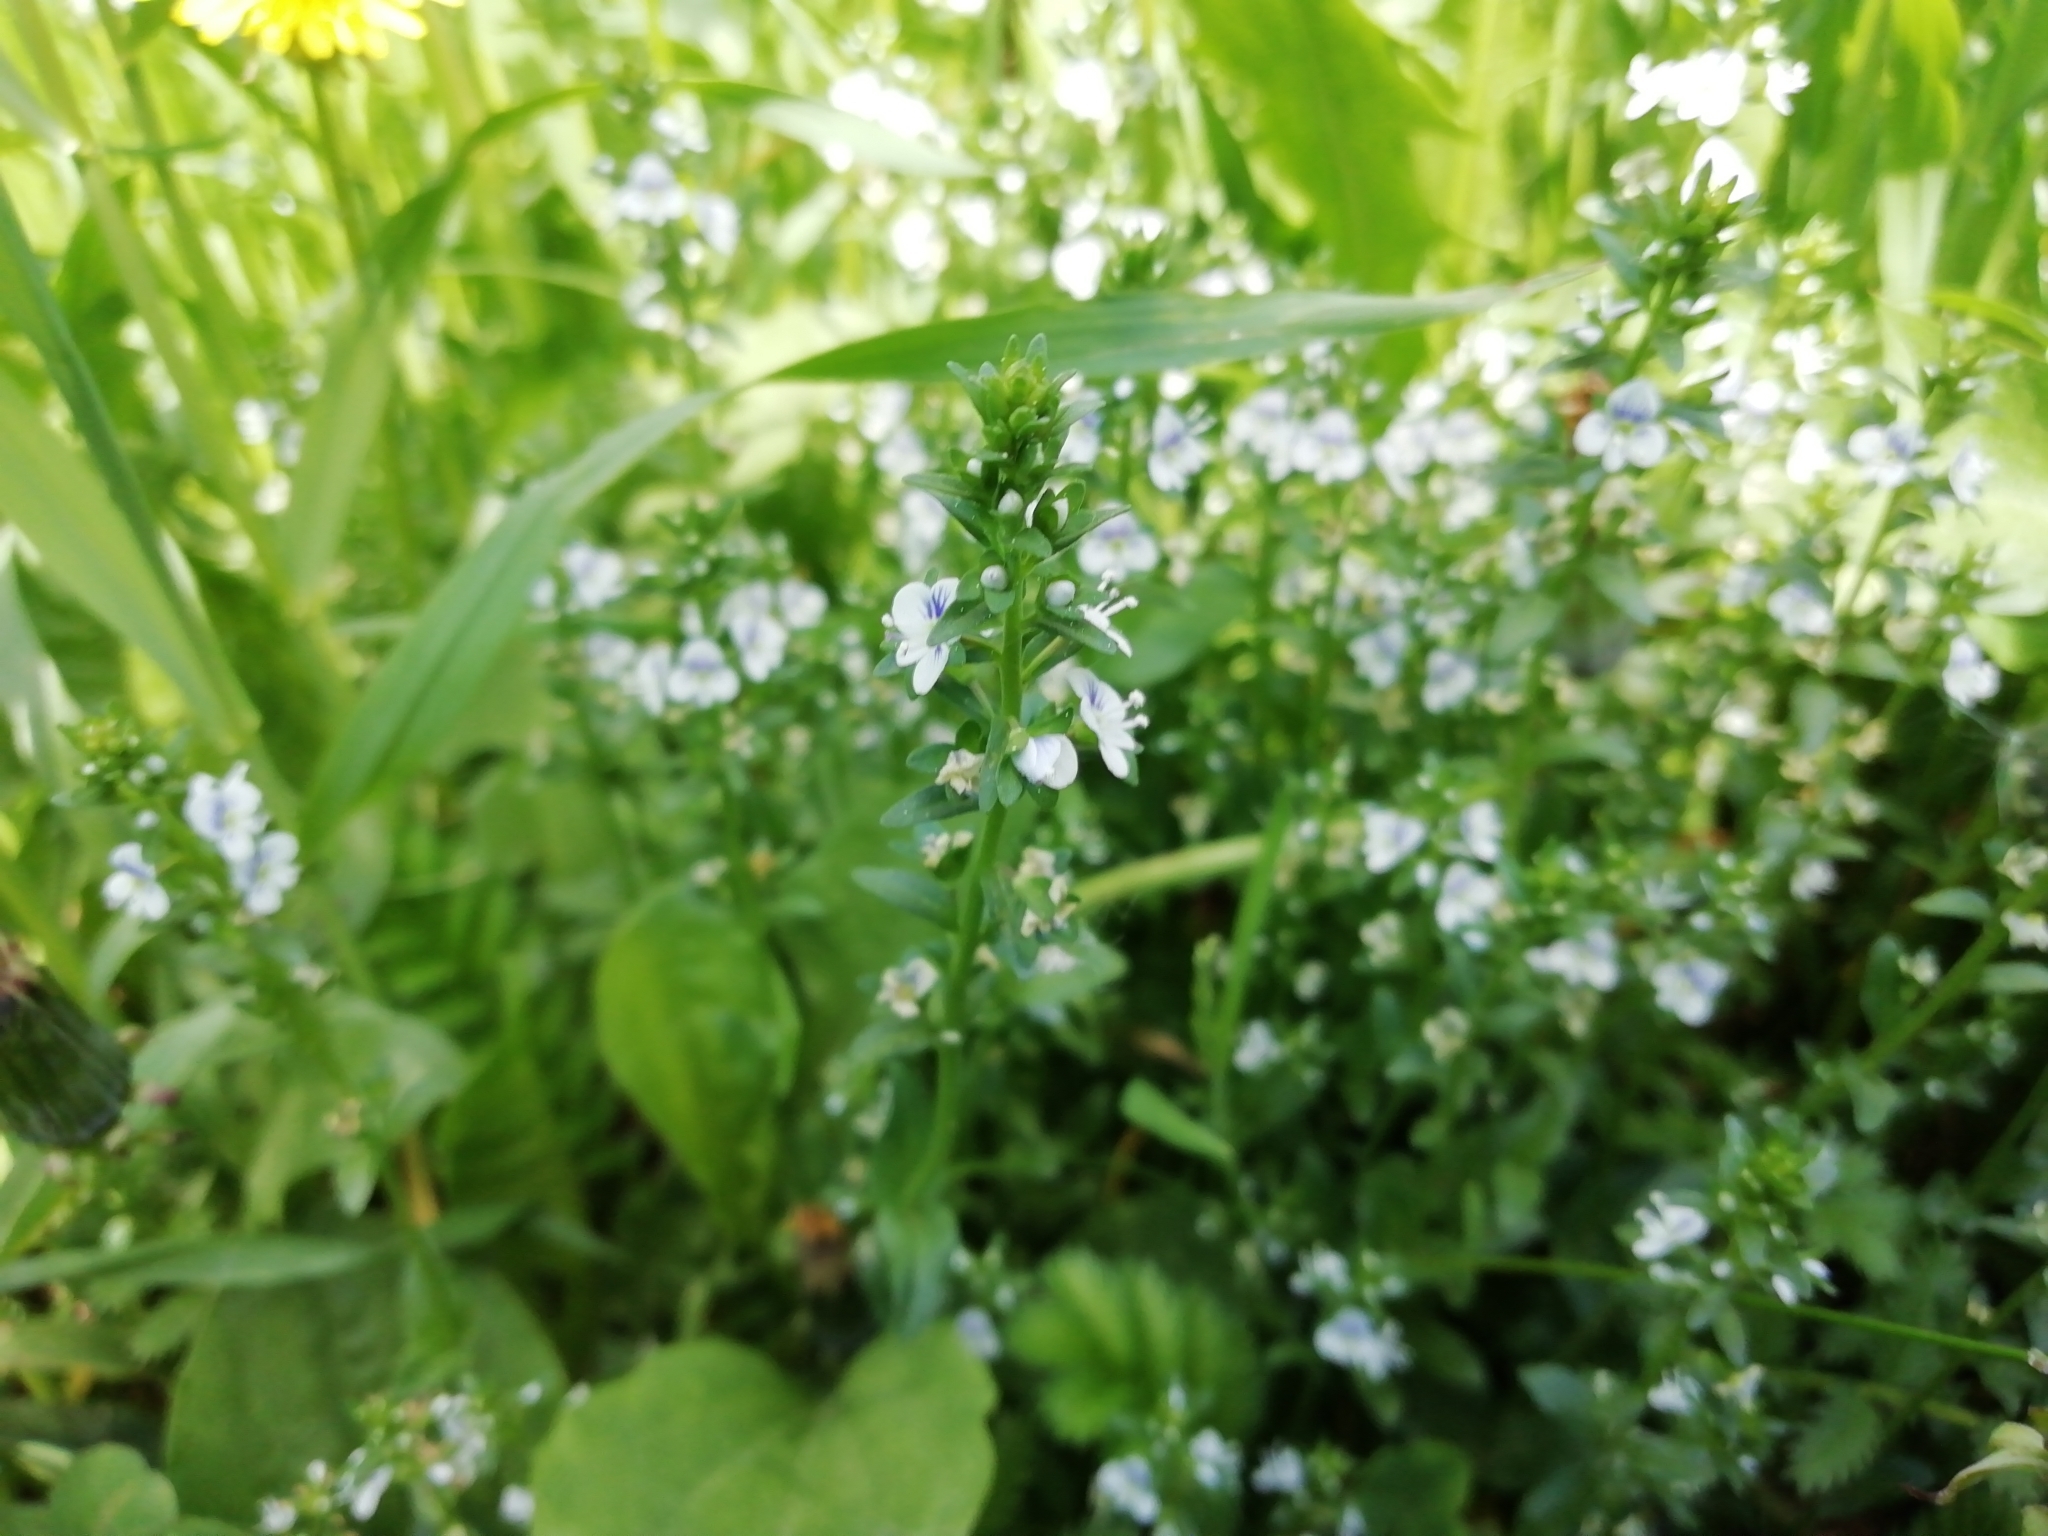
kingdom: Plantae
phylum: Tracheophyta
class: Magnoliopsida
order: Lamiales
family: Plantaginaceae
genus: Veronica
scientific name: Veronica serpyllifolia
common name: Thyme-leaved speedwell
